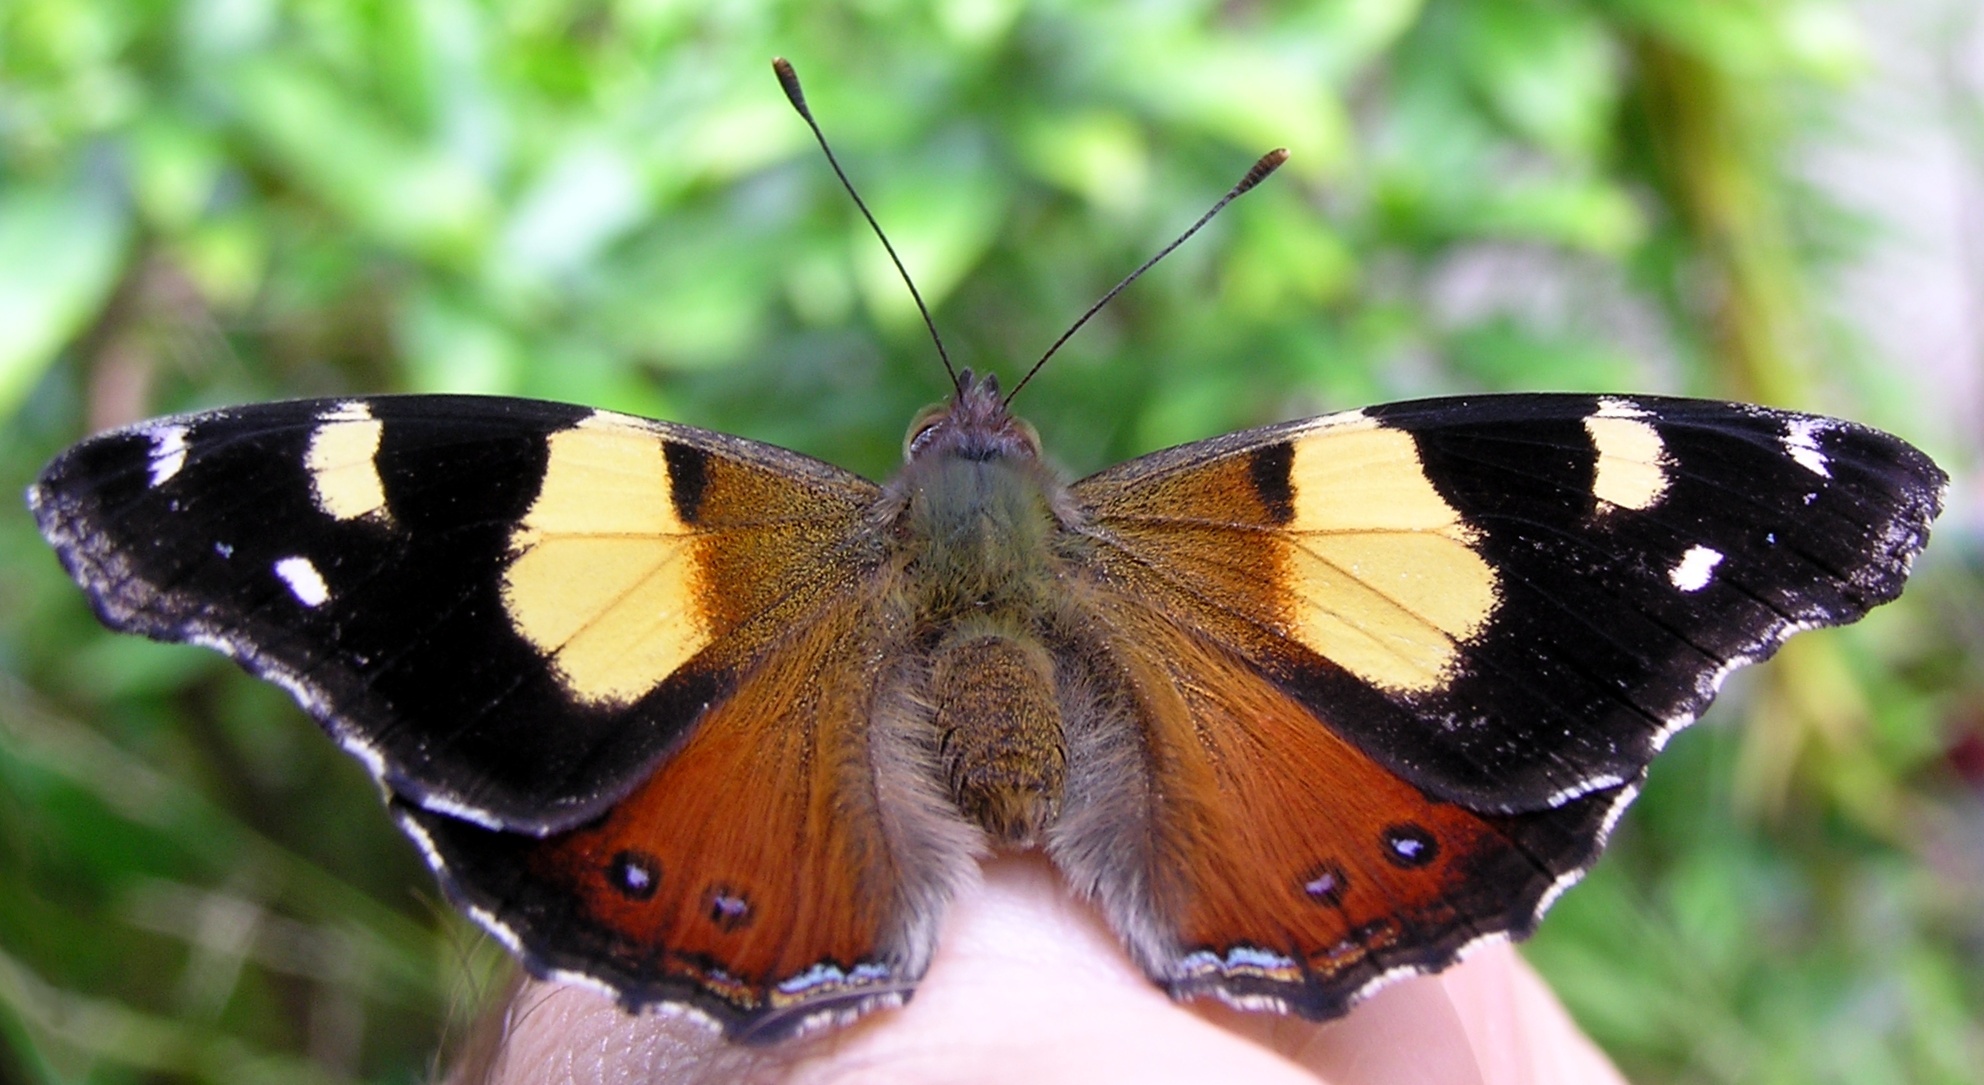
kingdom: Animalia
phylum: Arthropoda
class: Insecta
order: Lepidoptera
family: Nymphalidae
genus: Vanessa
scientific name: Vanessa itea
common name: Yellow admiral
